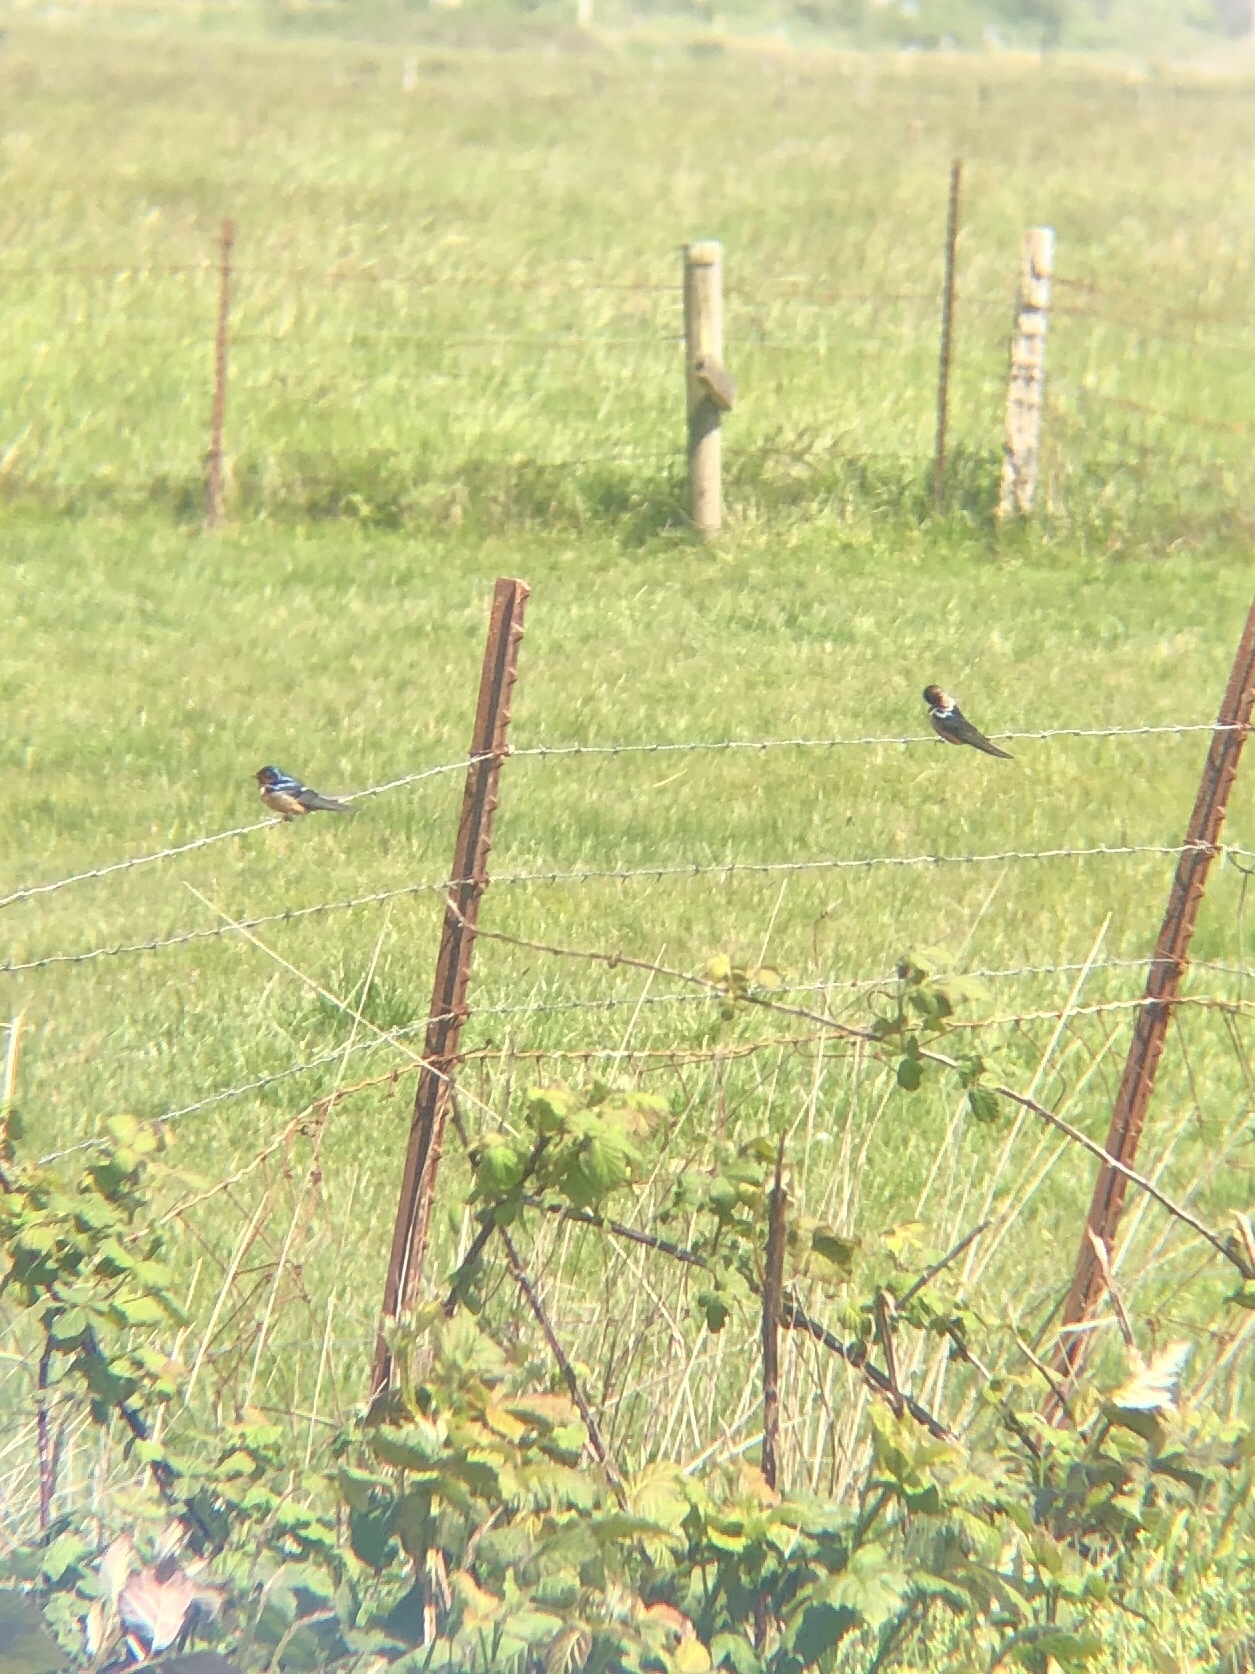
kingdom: Animalia
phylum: Chordata
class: Aves
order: Passeriformes
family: Hirundinidae
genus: Hirundo
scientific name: Hirundo rustica
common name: Barn swallow
